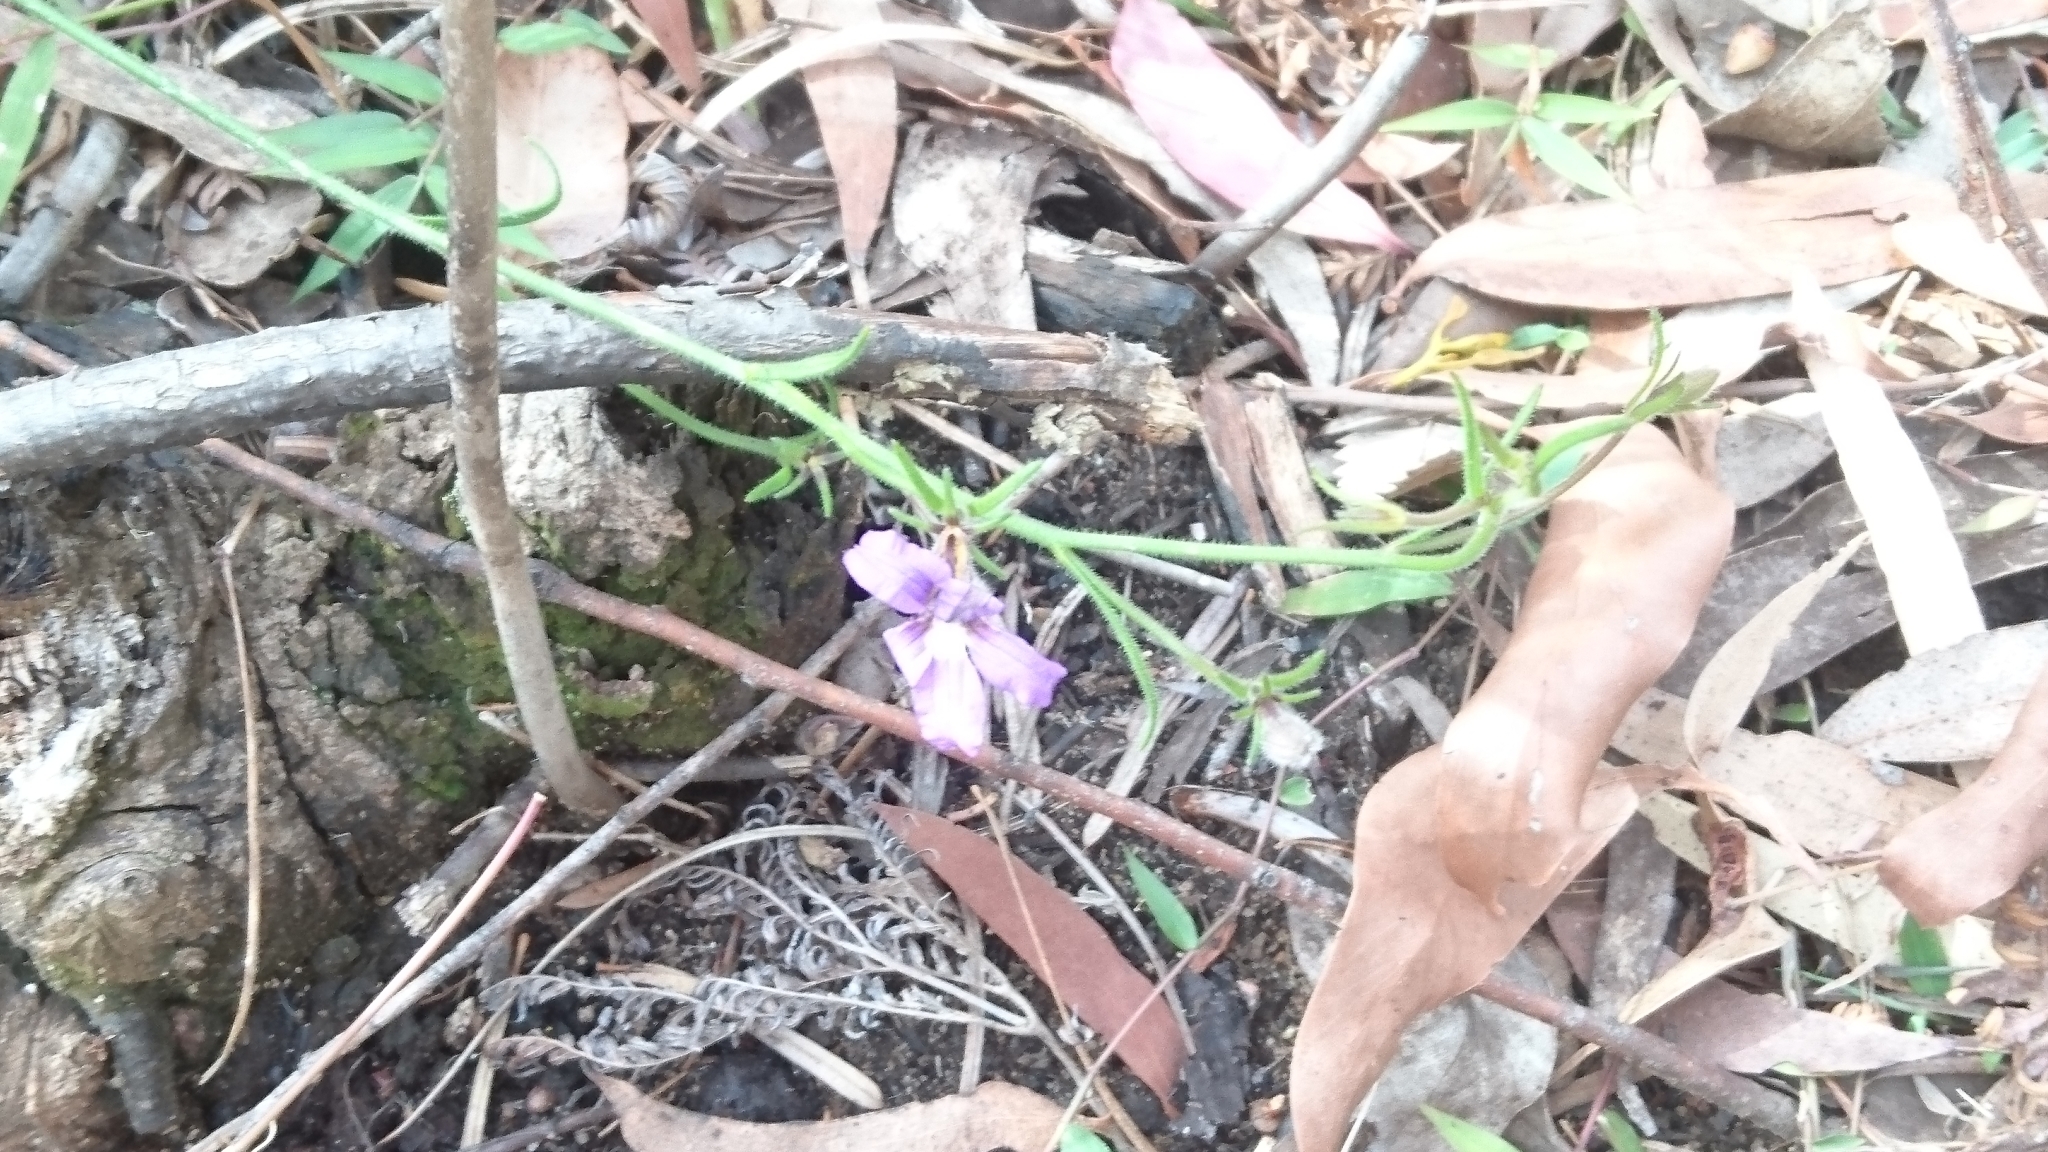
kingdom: Plantae
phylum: Tracheophyta
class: Magnoliopsida
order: Asterales
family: Goodeniaceae
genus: Scaevola
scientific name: Scaevola ramosissima
